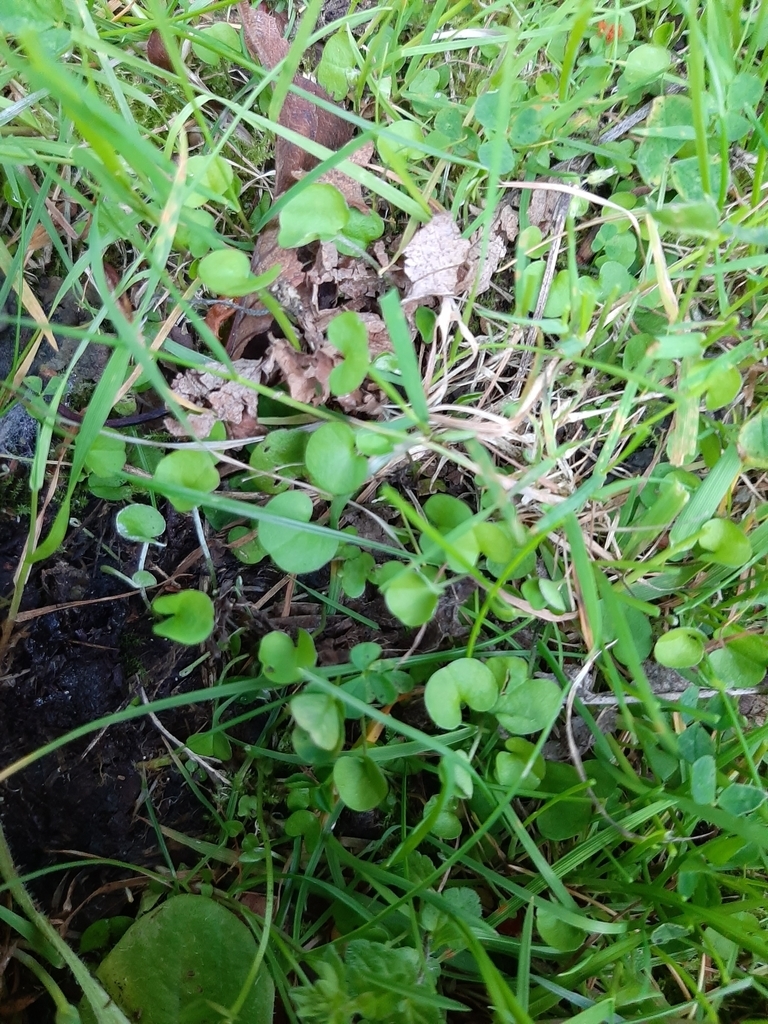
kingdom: Plantae
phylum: Tracheophyta
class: Magnoliopsida
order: Solanales
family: Convolvulaceae
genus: Dichondra
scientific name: Dichondra micrantha
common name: Kidneyweed
